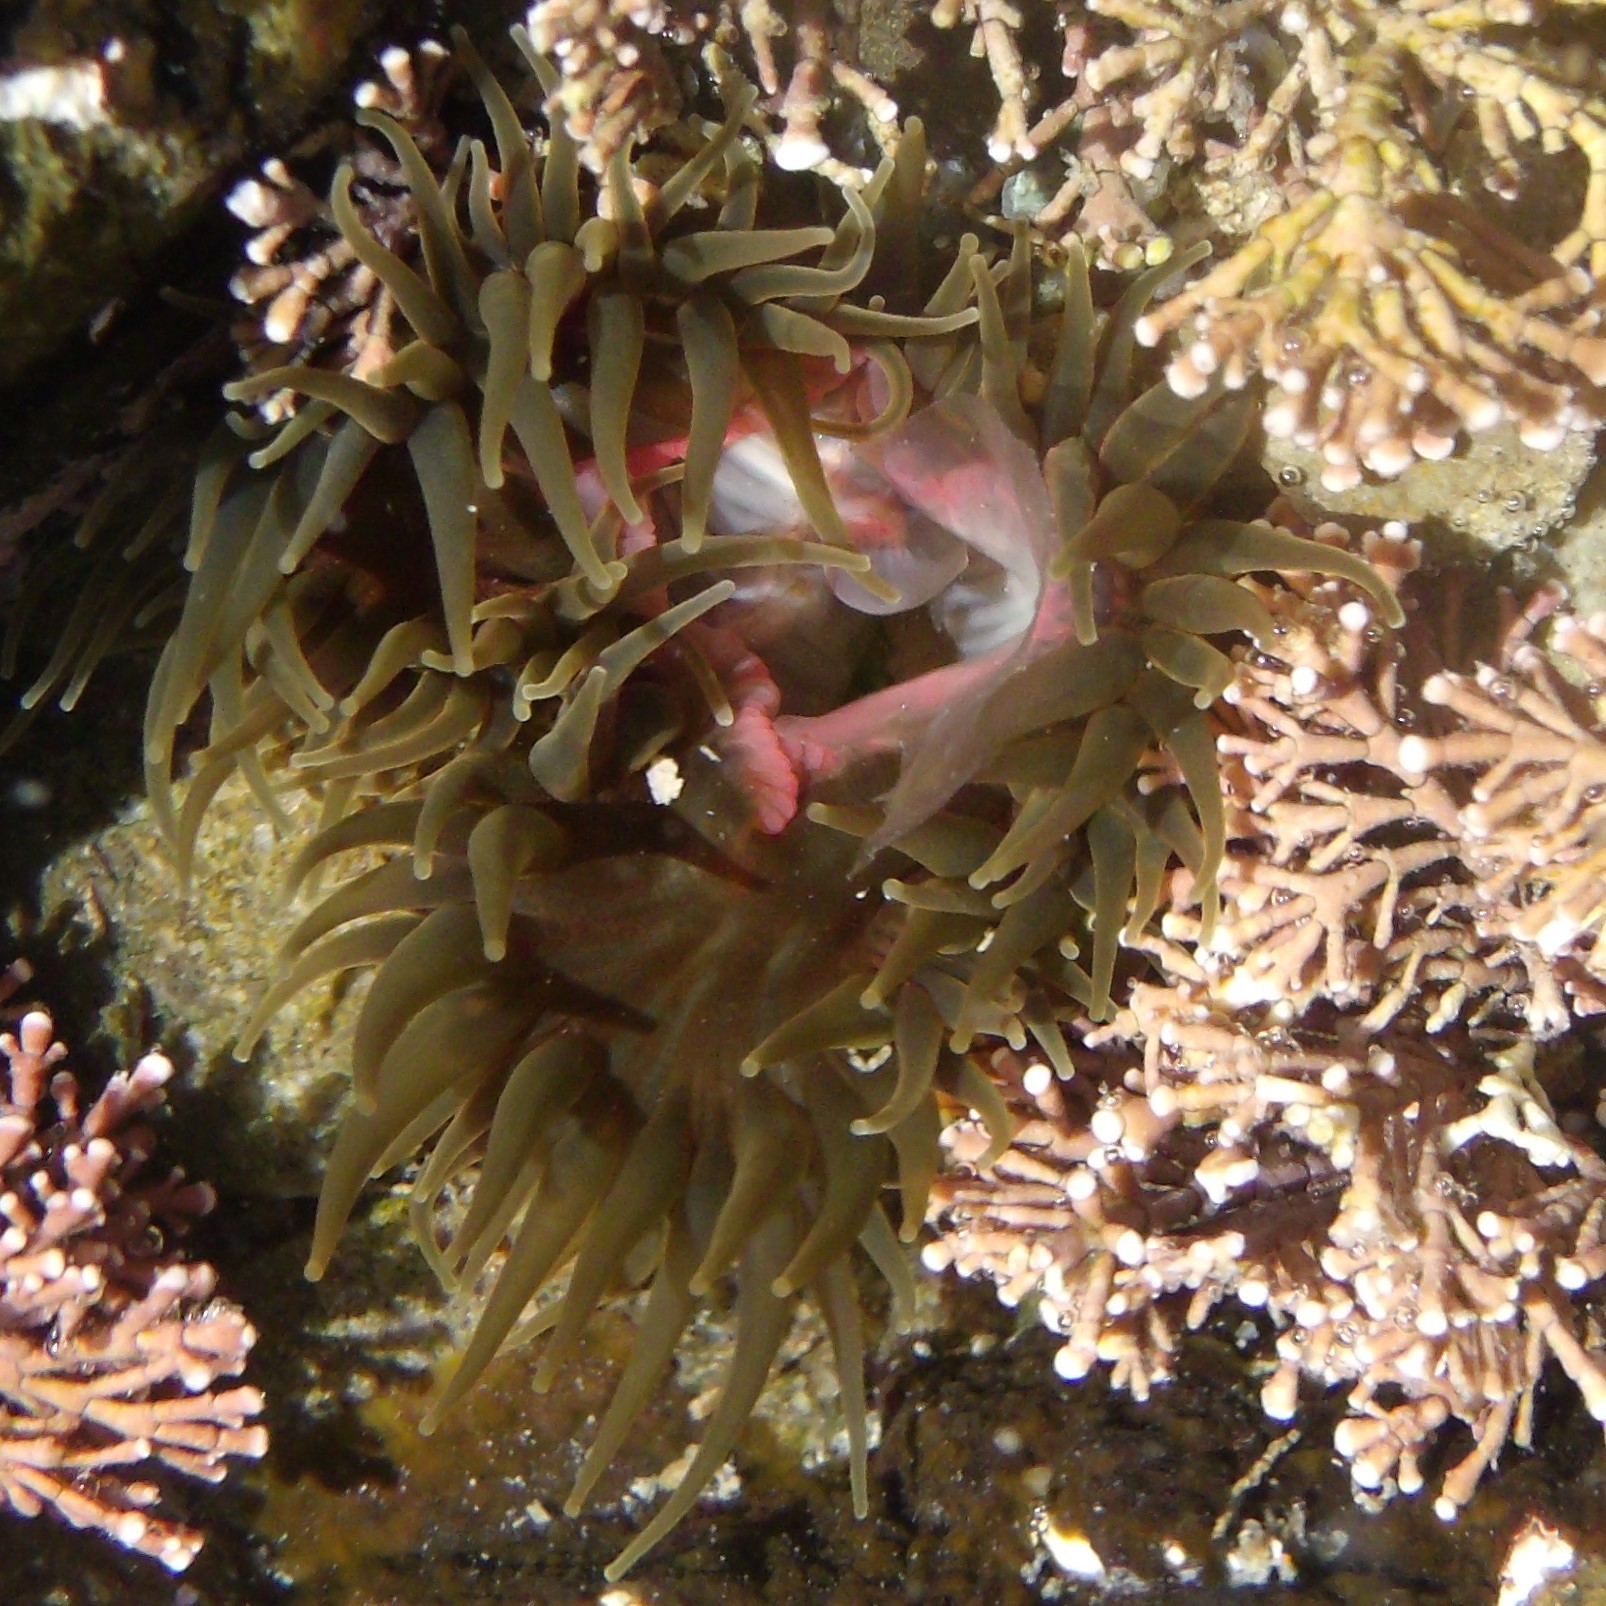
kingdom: Animalia
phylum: Cnidaria
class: Anthozoa
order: Actiniaria
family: Actiniidae
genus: Isactinia
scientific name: Isactinia olivacea
